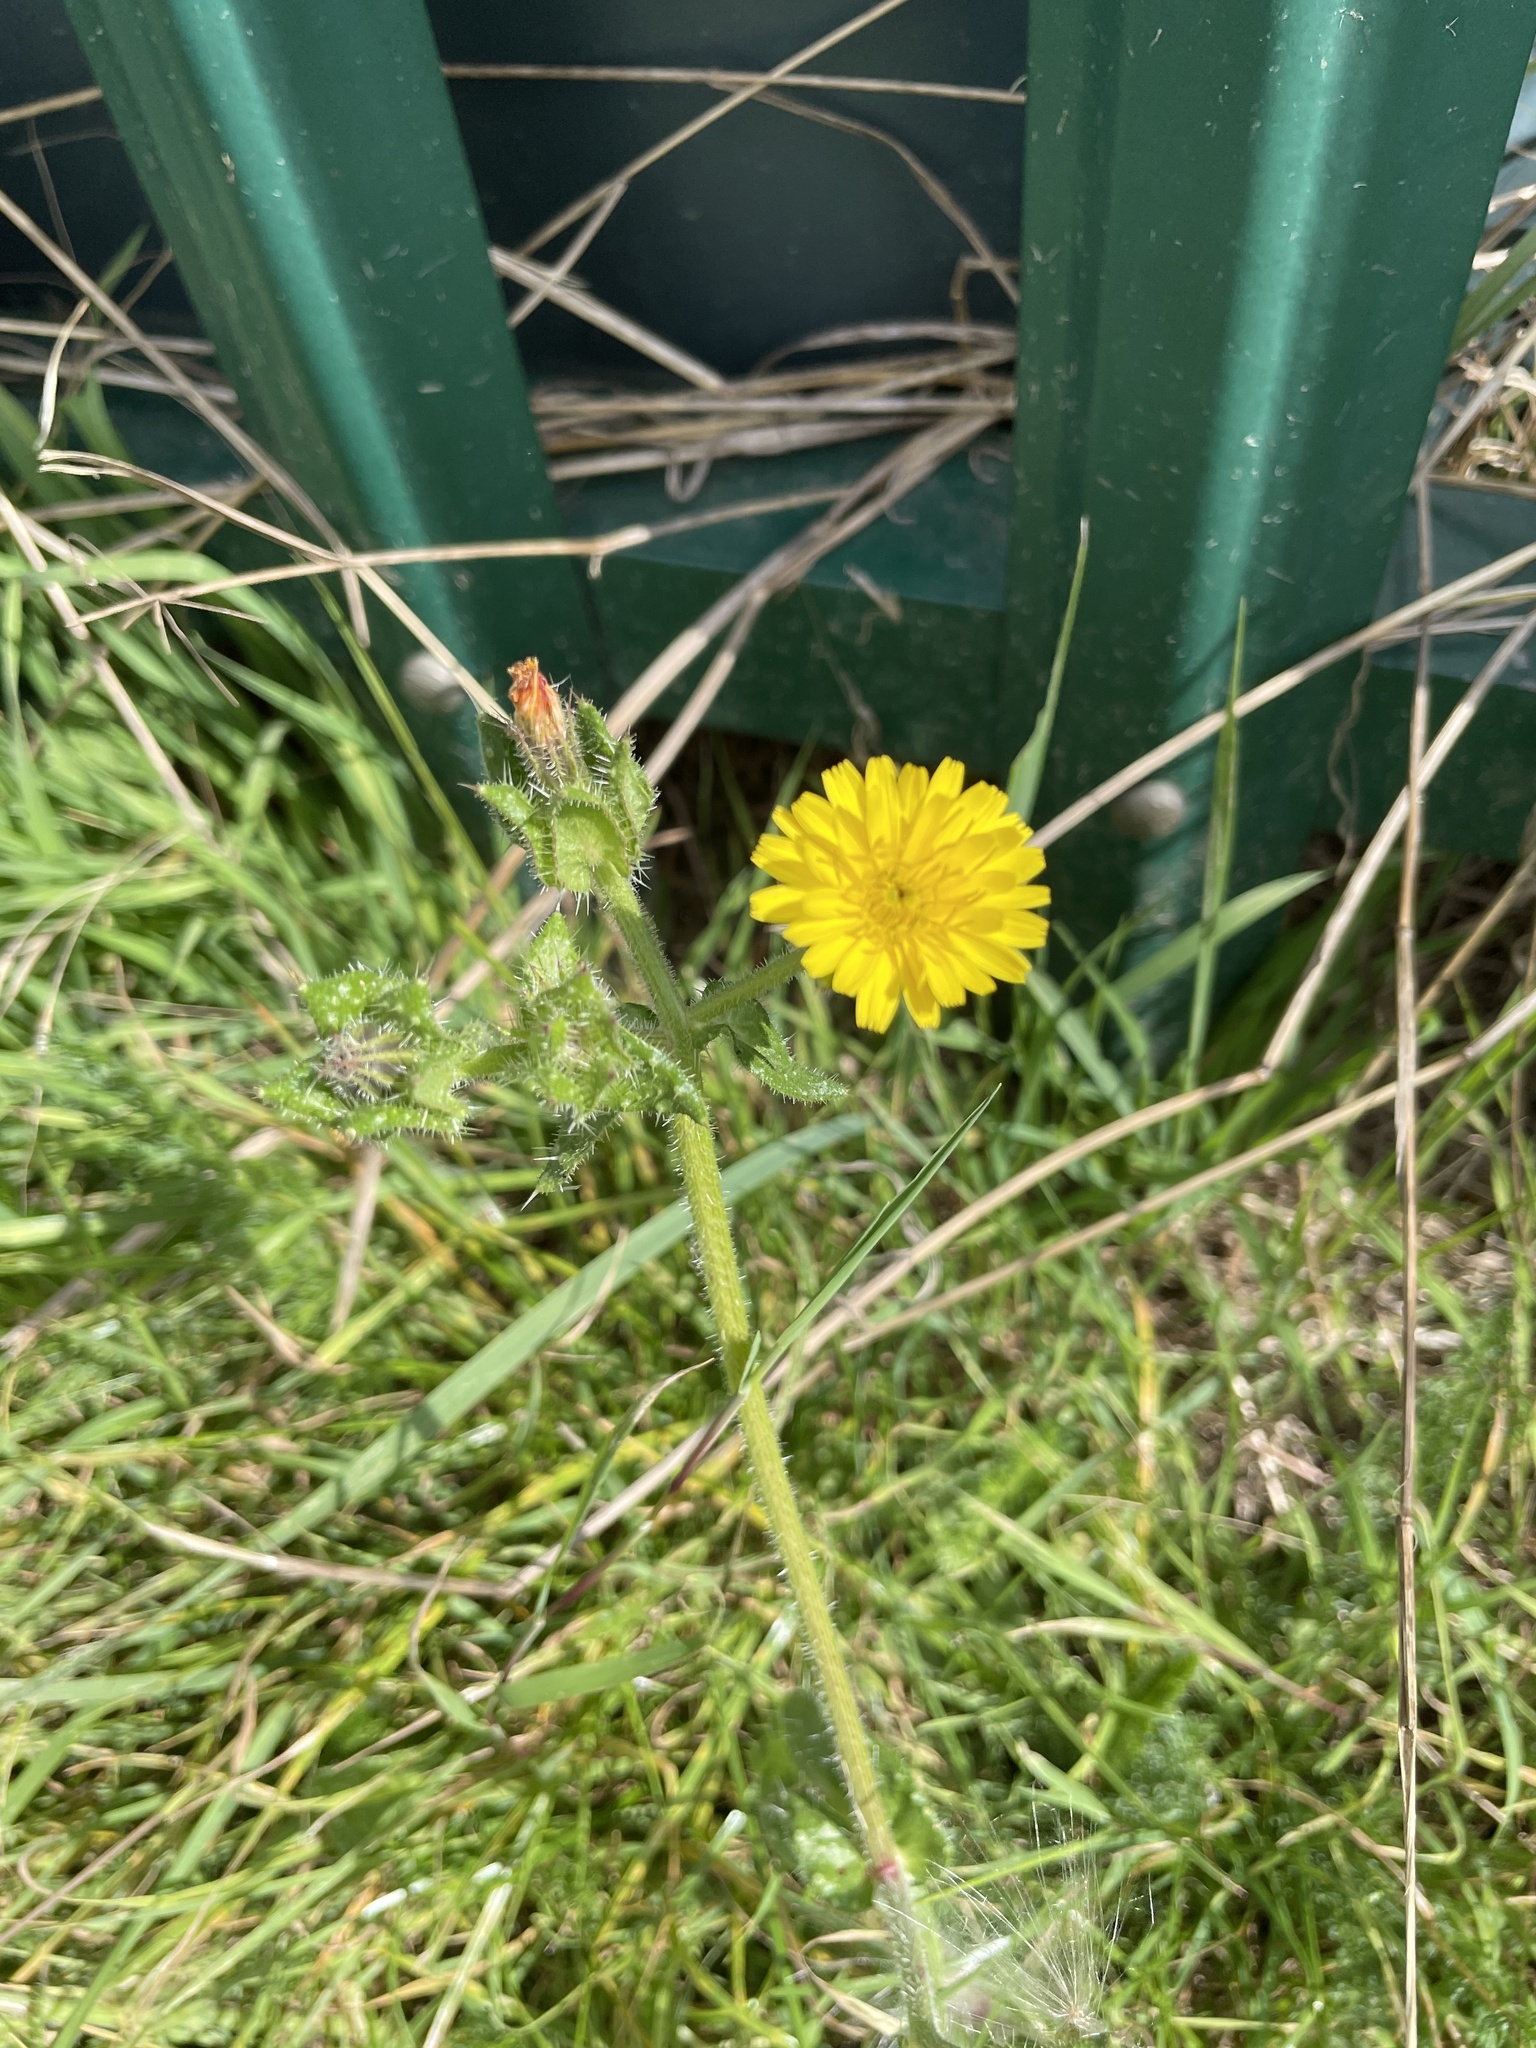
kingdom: Plantae
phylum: Tracheophyta
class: Magnoliopsida
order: Asterales
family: Asteraceae
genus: Helminthotheca
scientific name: Helminthotheca echioides
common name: Ox-tongue
